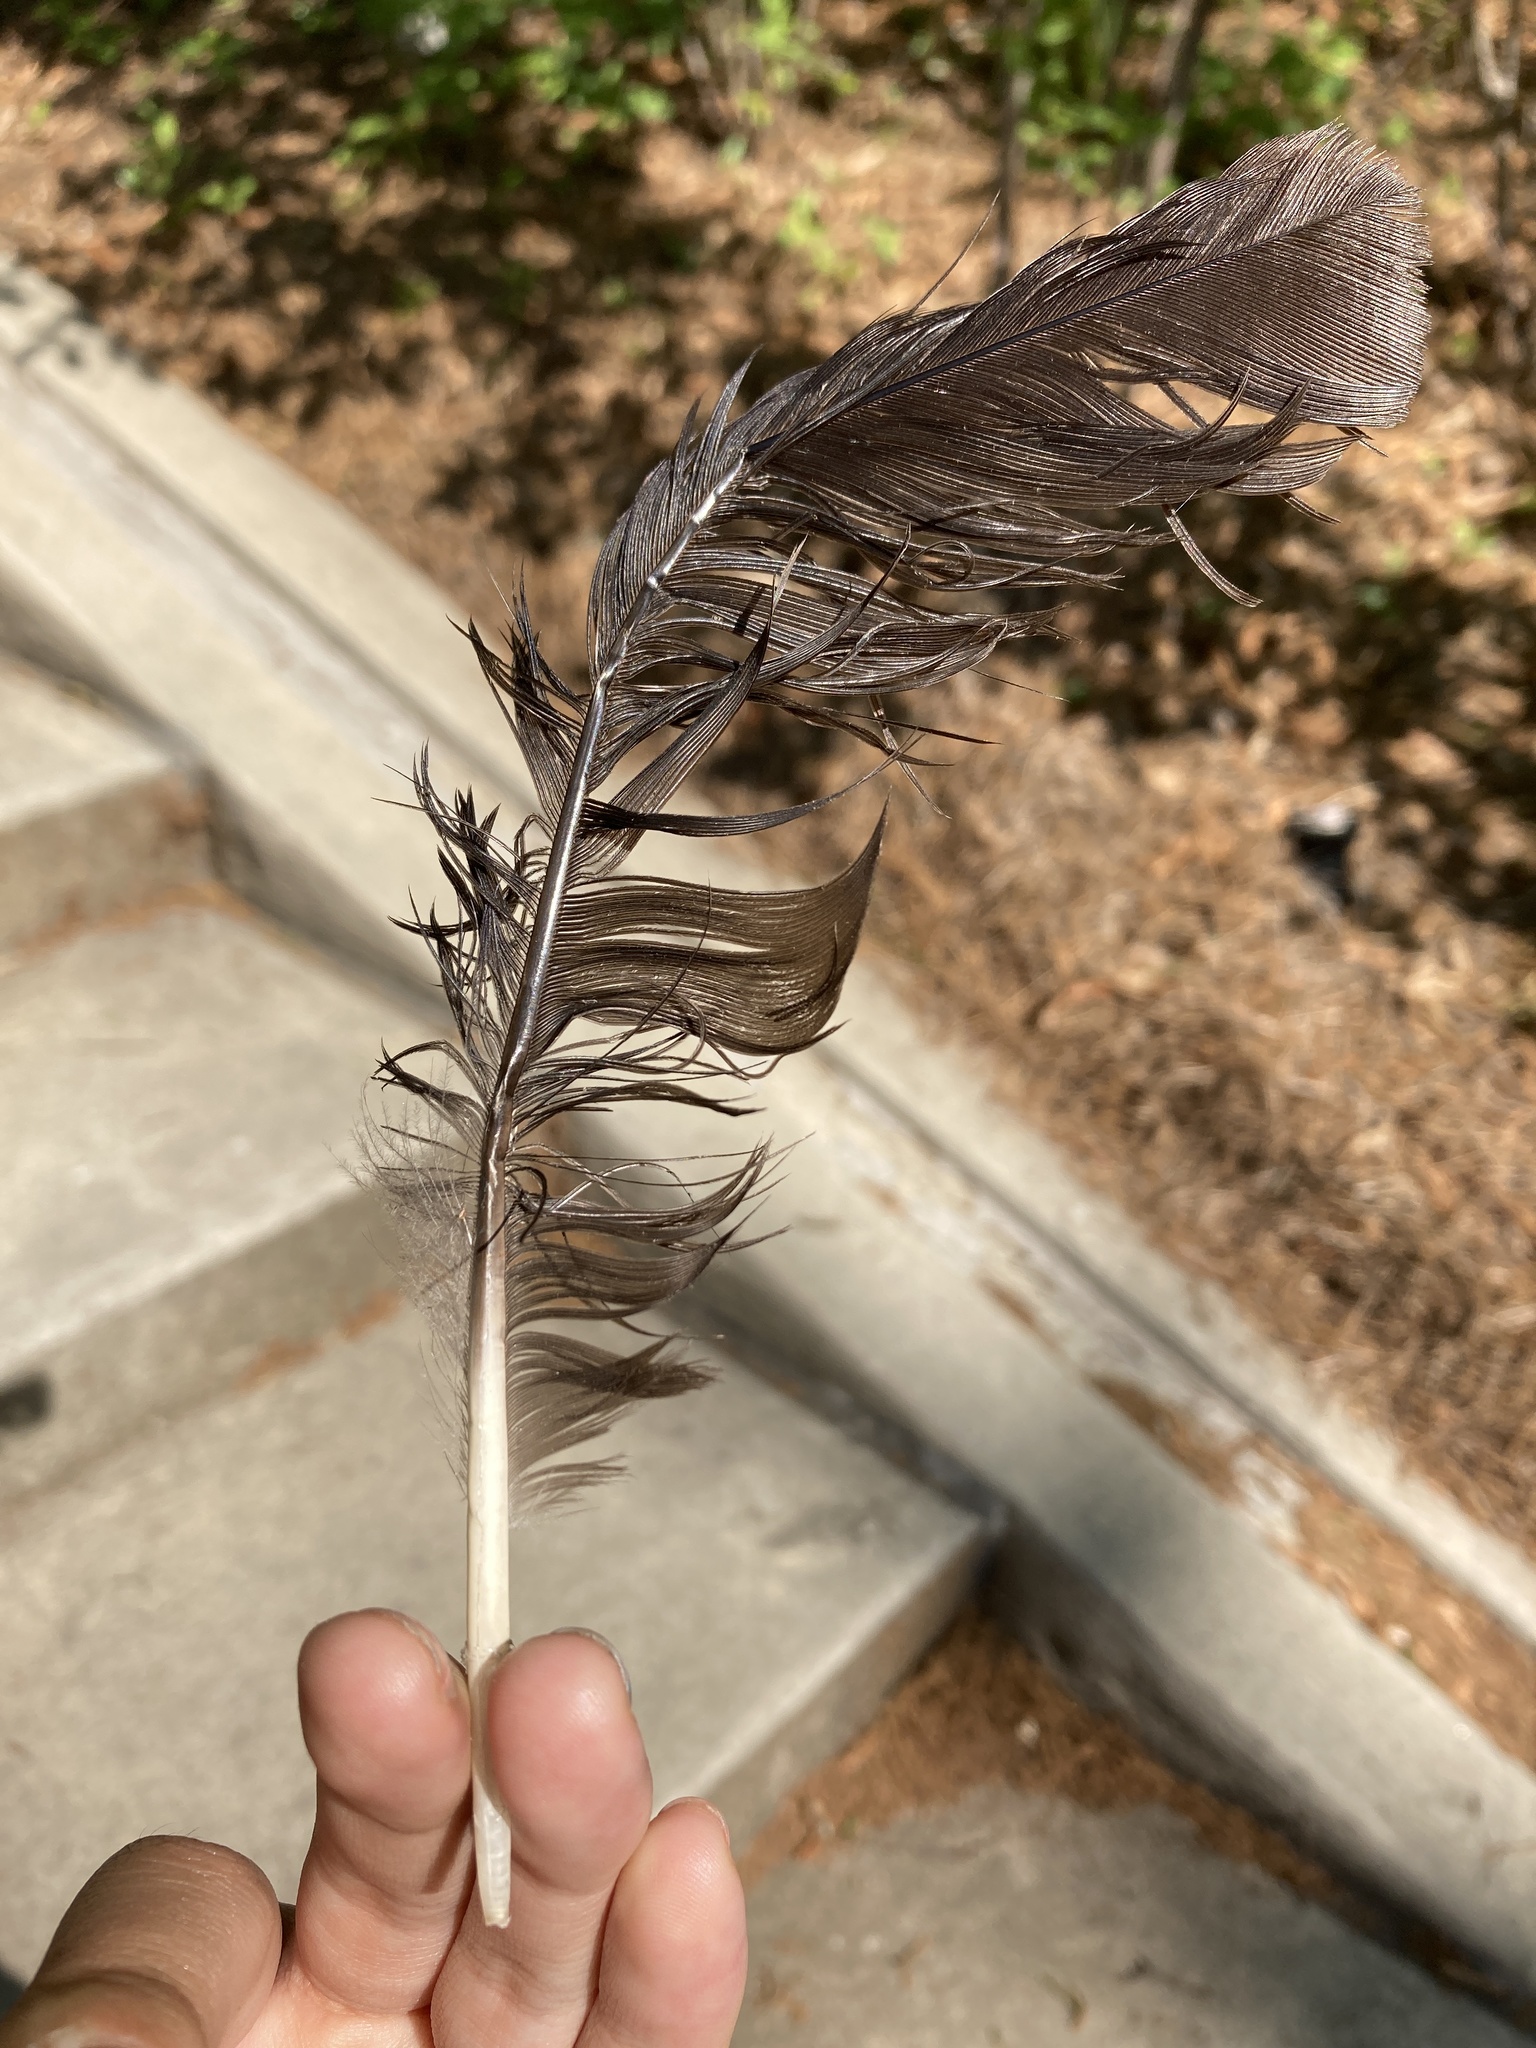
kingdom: Animalia
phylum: Chordata
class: Aves
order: Passeriformes
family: Corvidae
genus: Corvus
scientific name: Corvus
